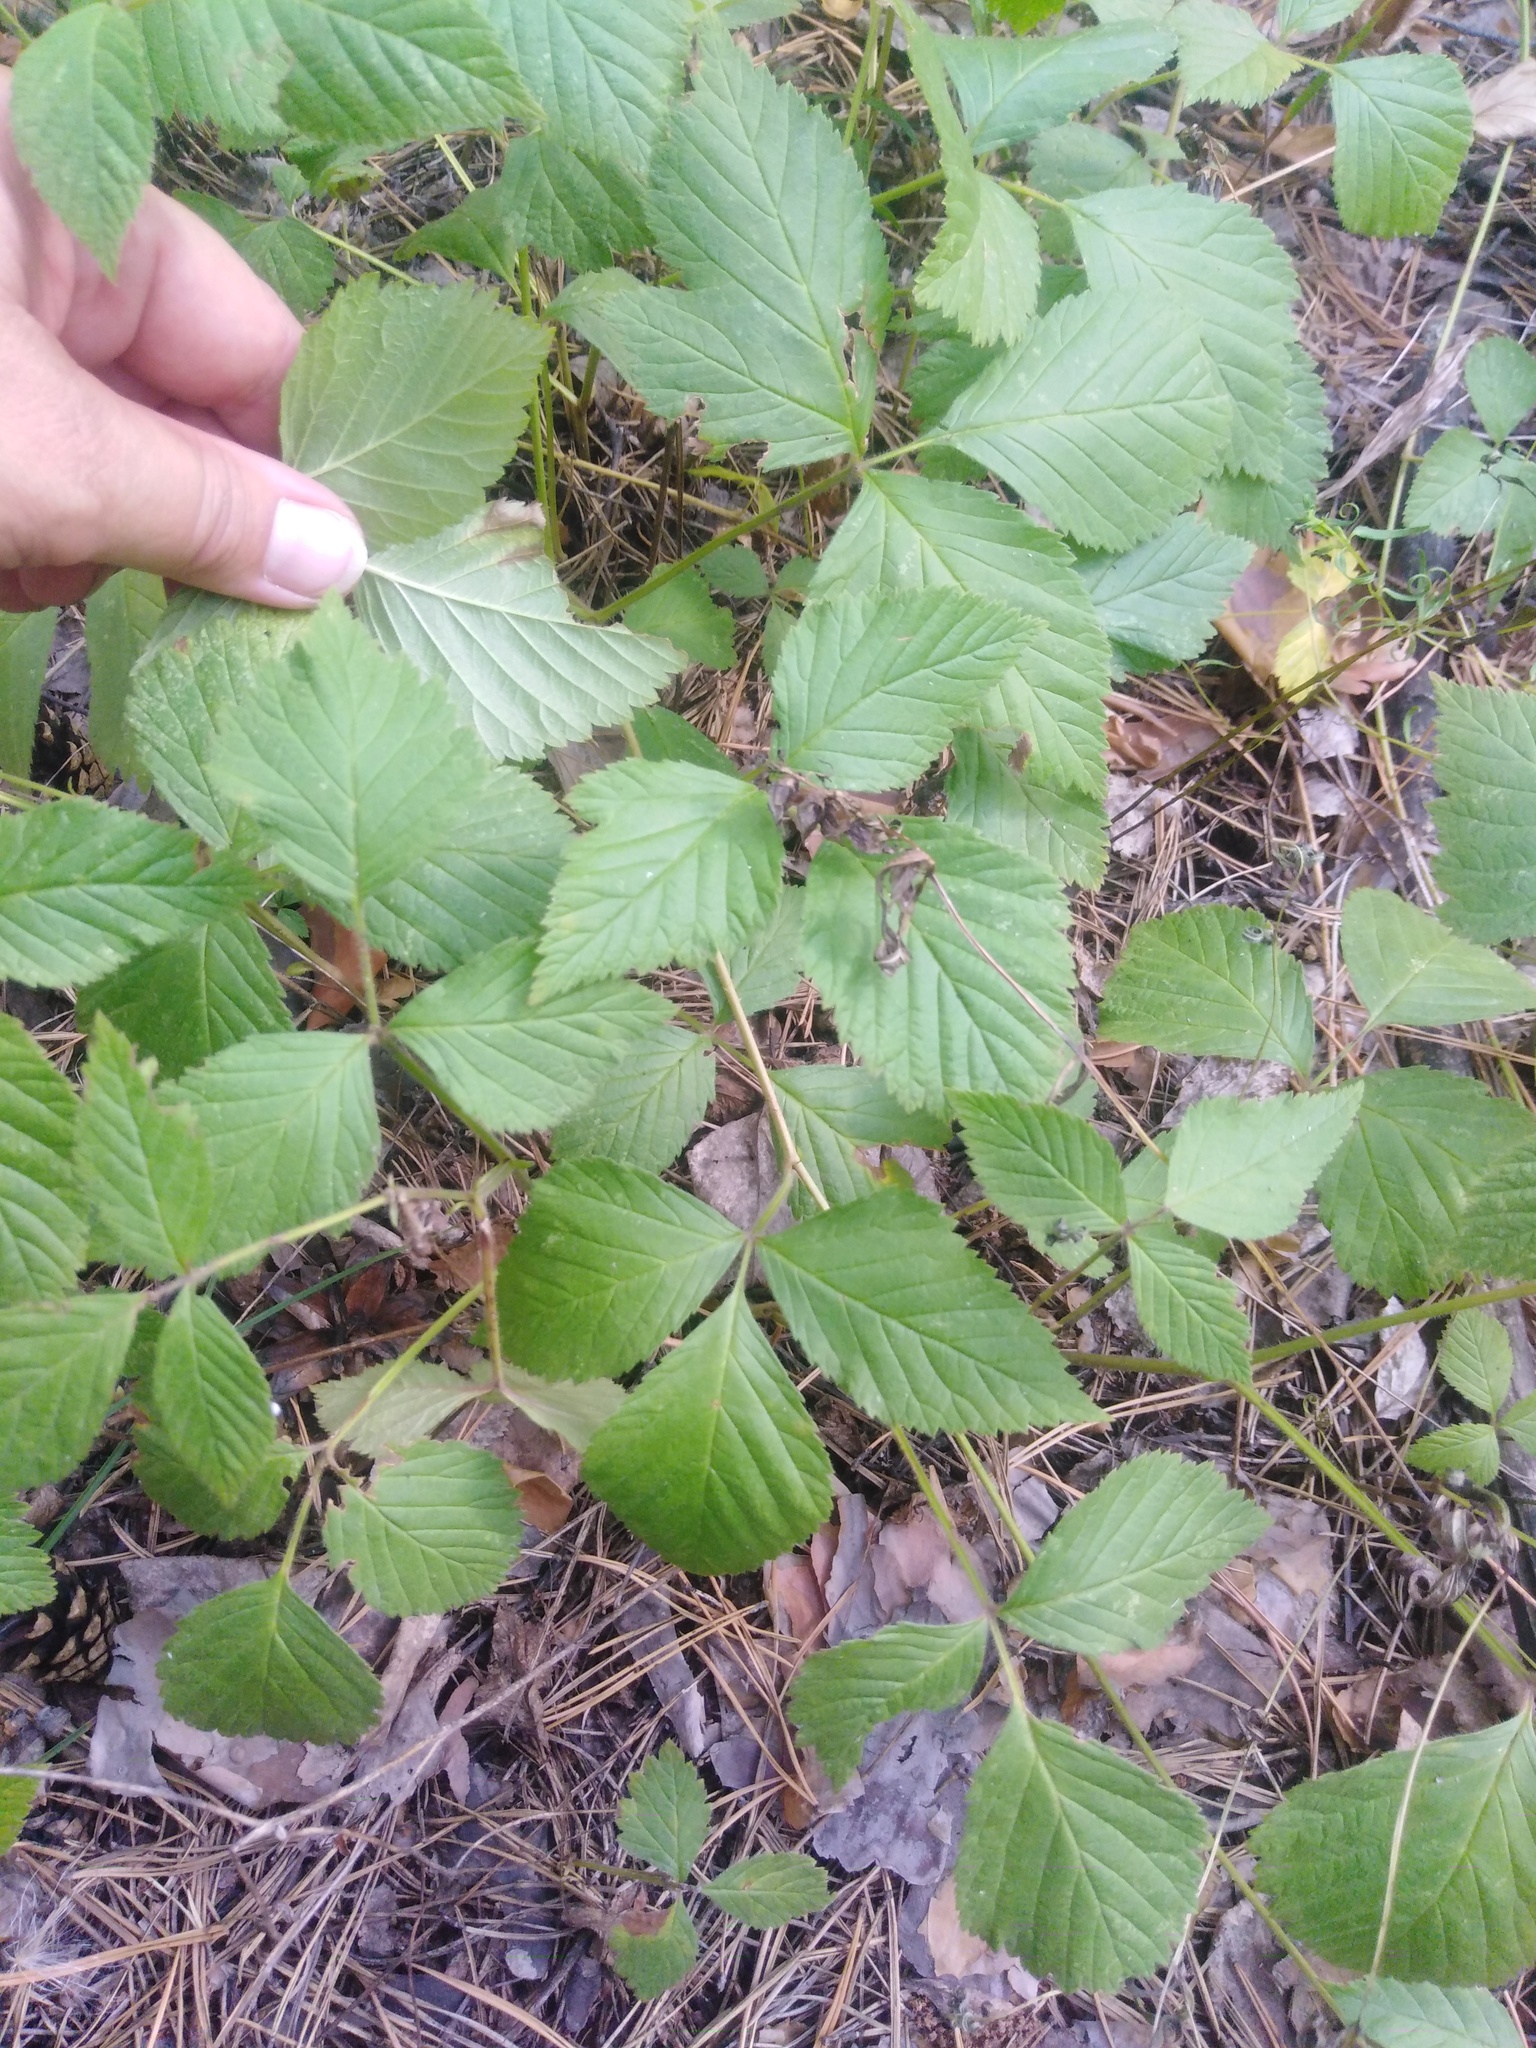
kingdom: Plantae
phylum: Tracheophyta
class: Magnoliopsida
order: Rosales
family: Rosaceae
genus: Rubus
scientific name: Rubus saxatilis
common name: Stone bramble
